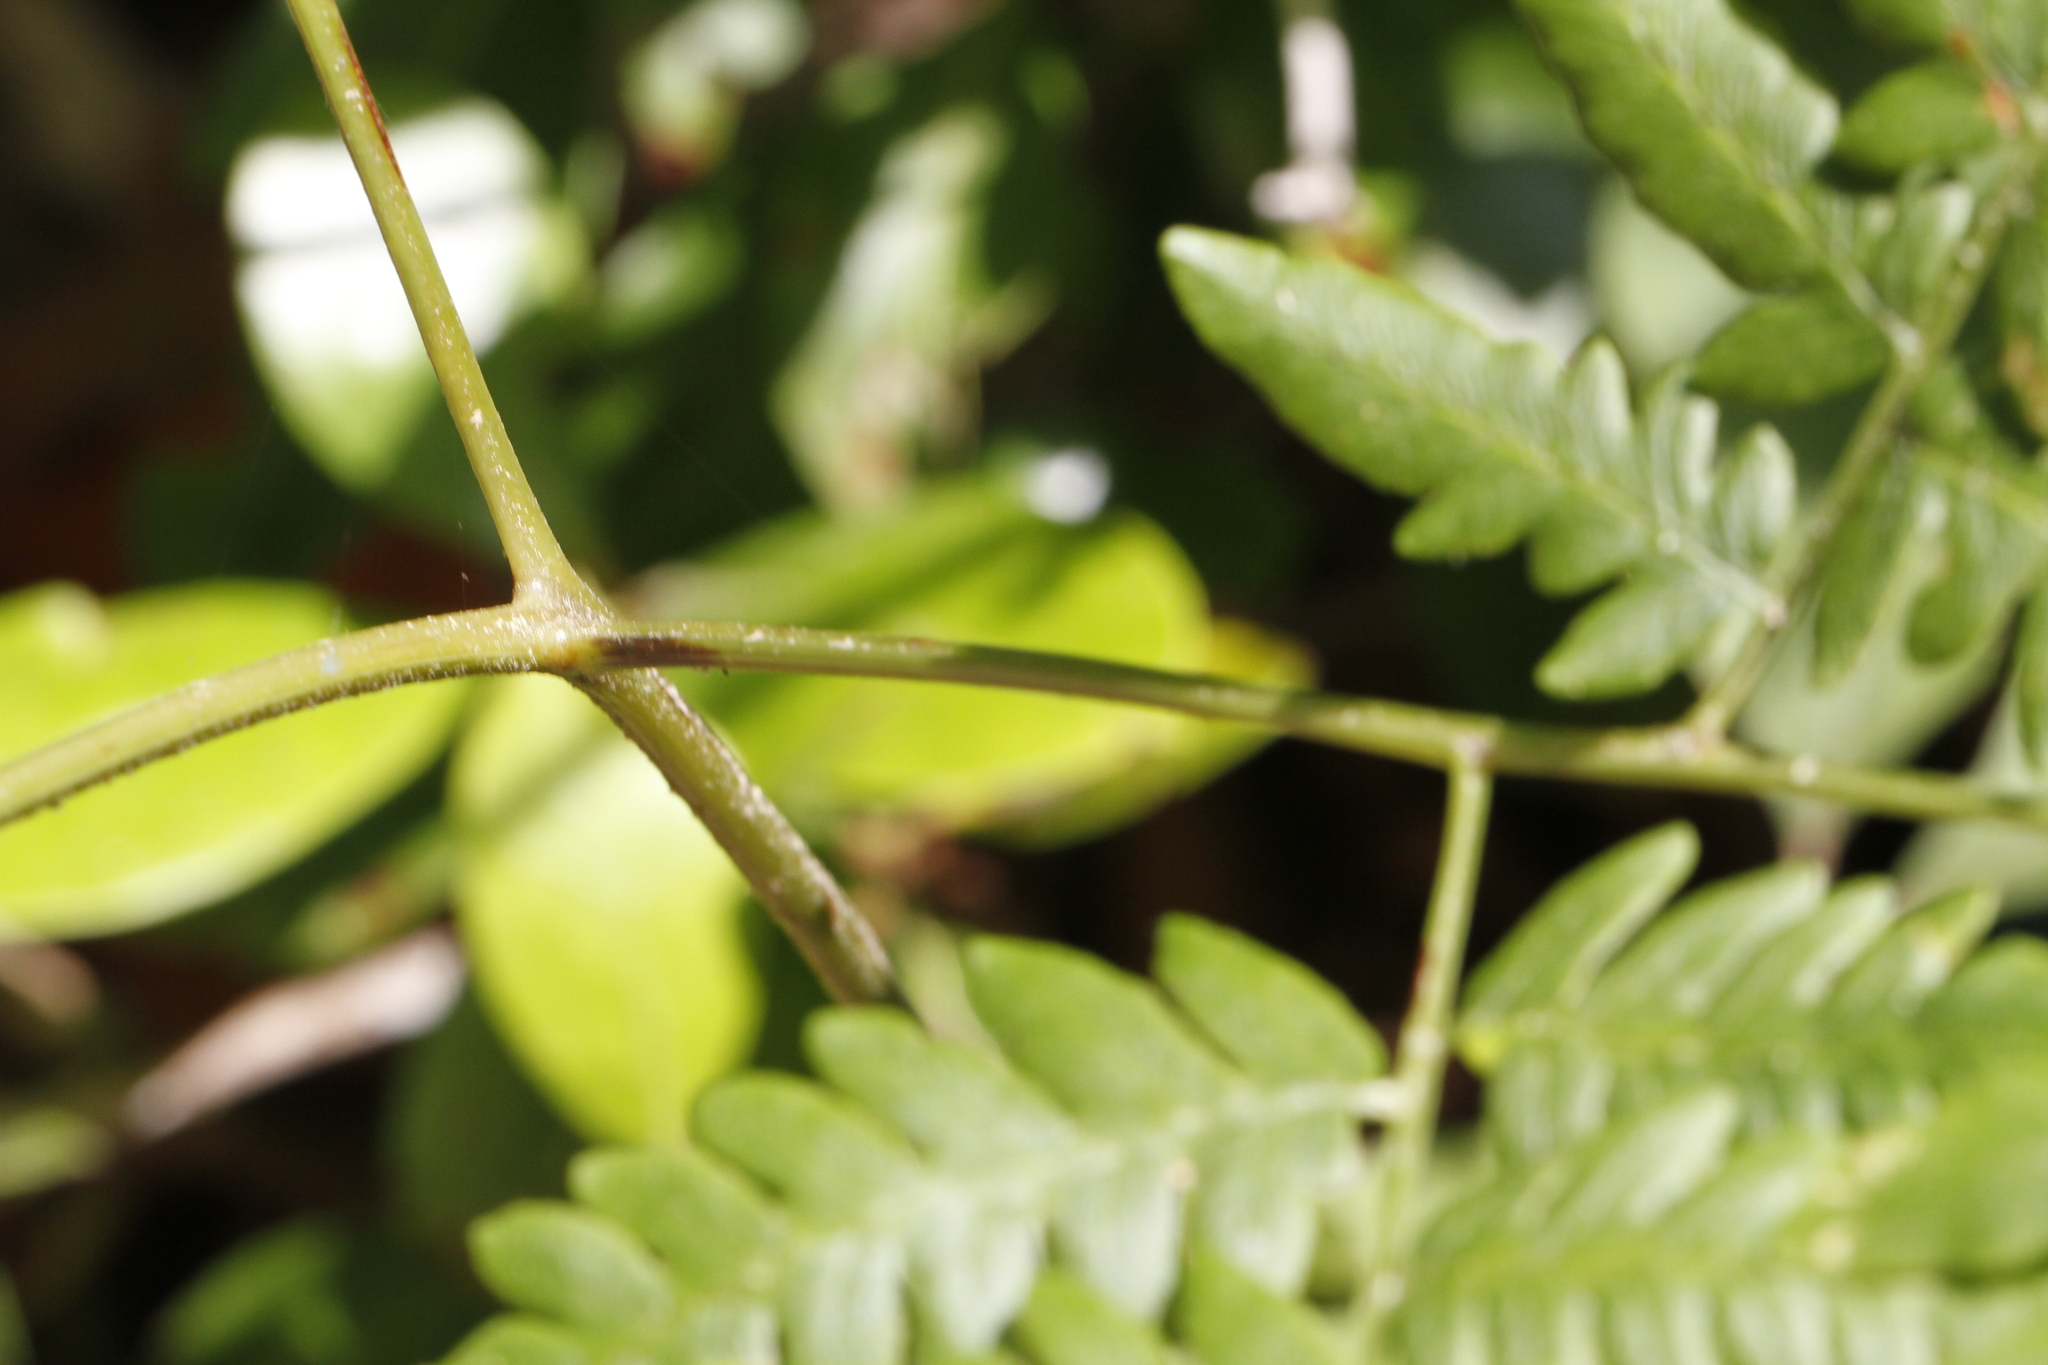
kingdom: Plantae
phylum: Tracheophyta
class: Polypodiopsida
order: Polypodiales
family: Dennstaedtiaceae
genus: Pteridium
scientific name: Pteridium aquilinum
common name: Bracken
